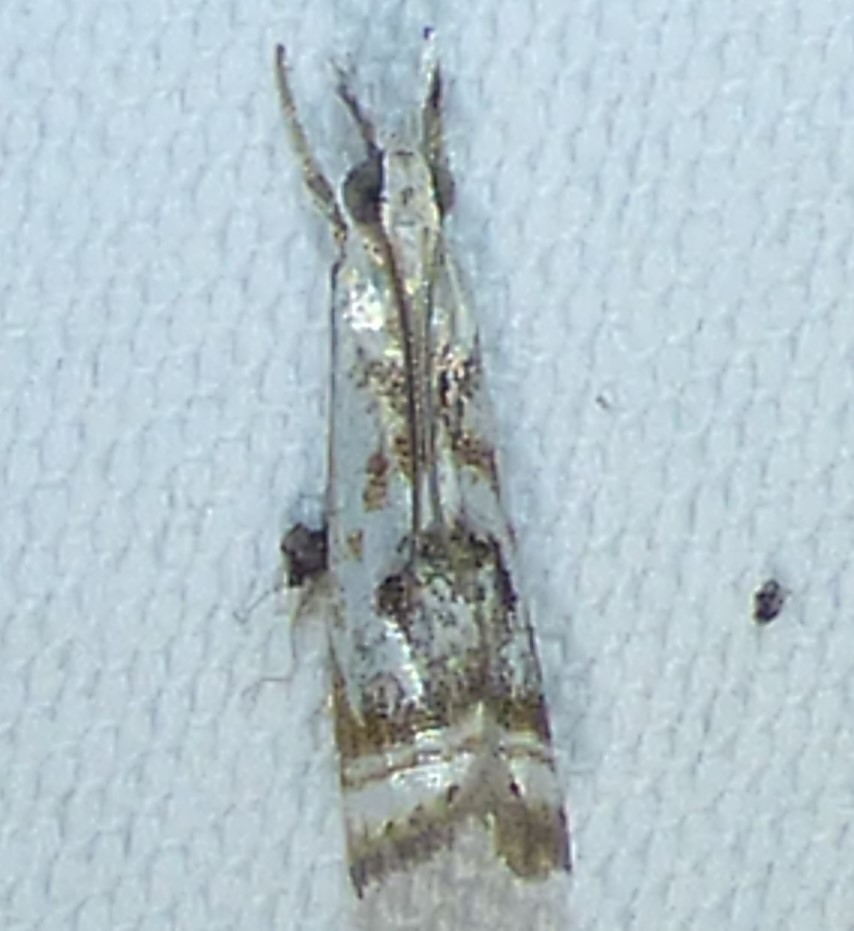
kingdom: Animalia
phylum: Arthropoda
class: Insecta
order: Lepidoptera
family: Crambidae
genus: Microcrambus
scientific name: Microcrambus elegans
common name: Elegant grass-veneer
